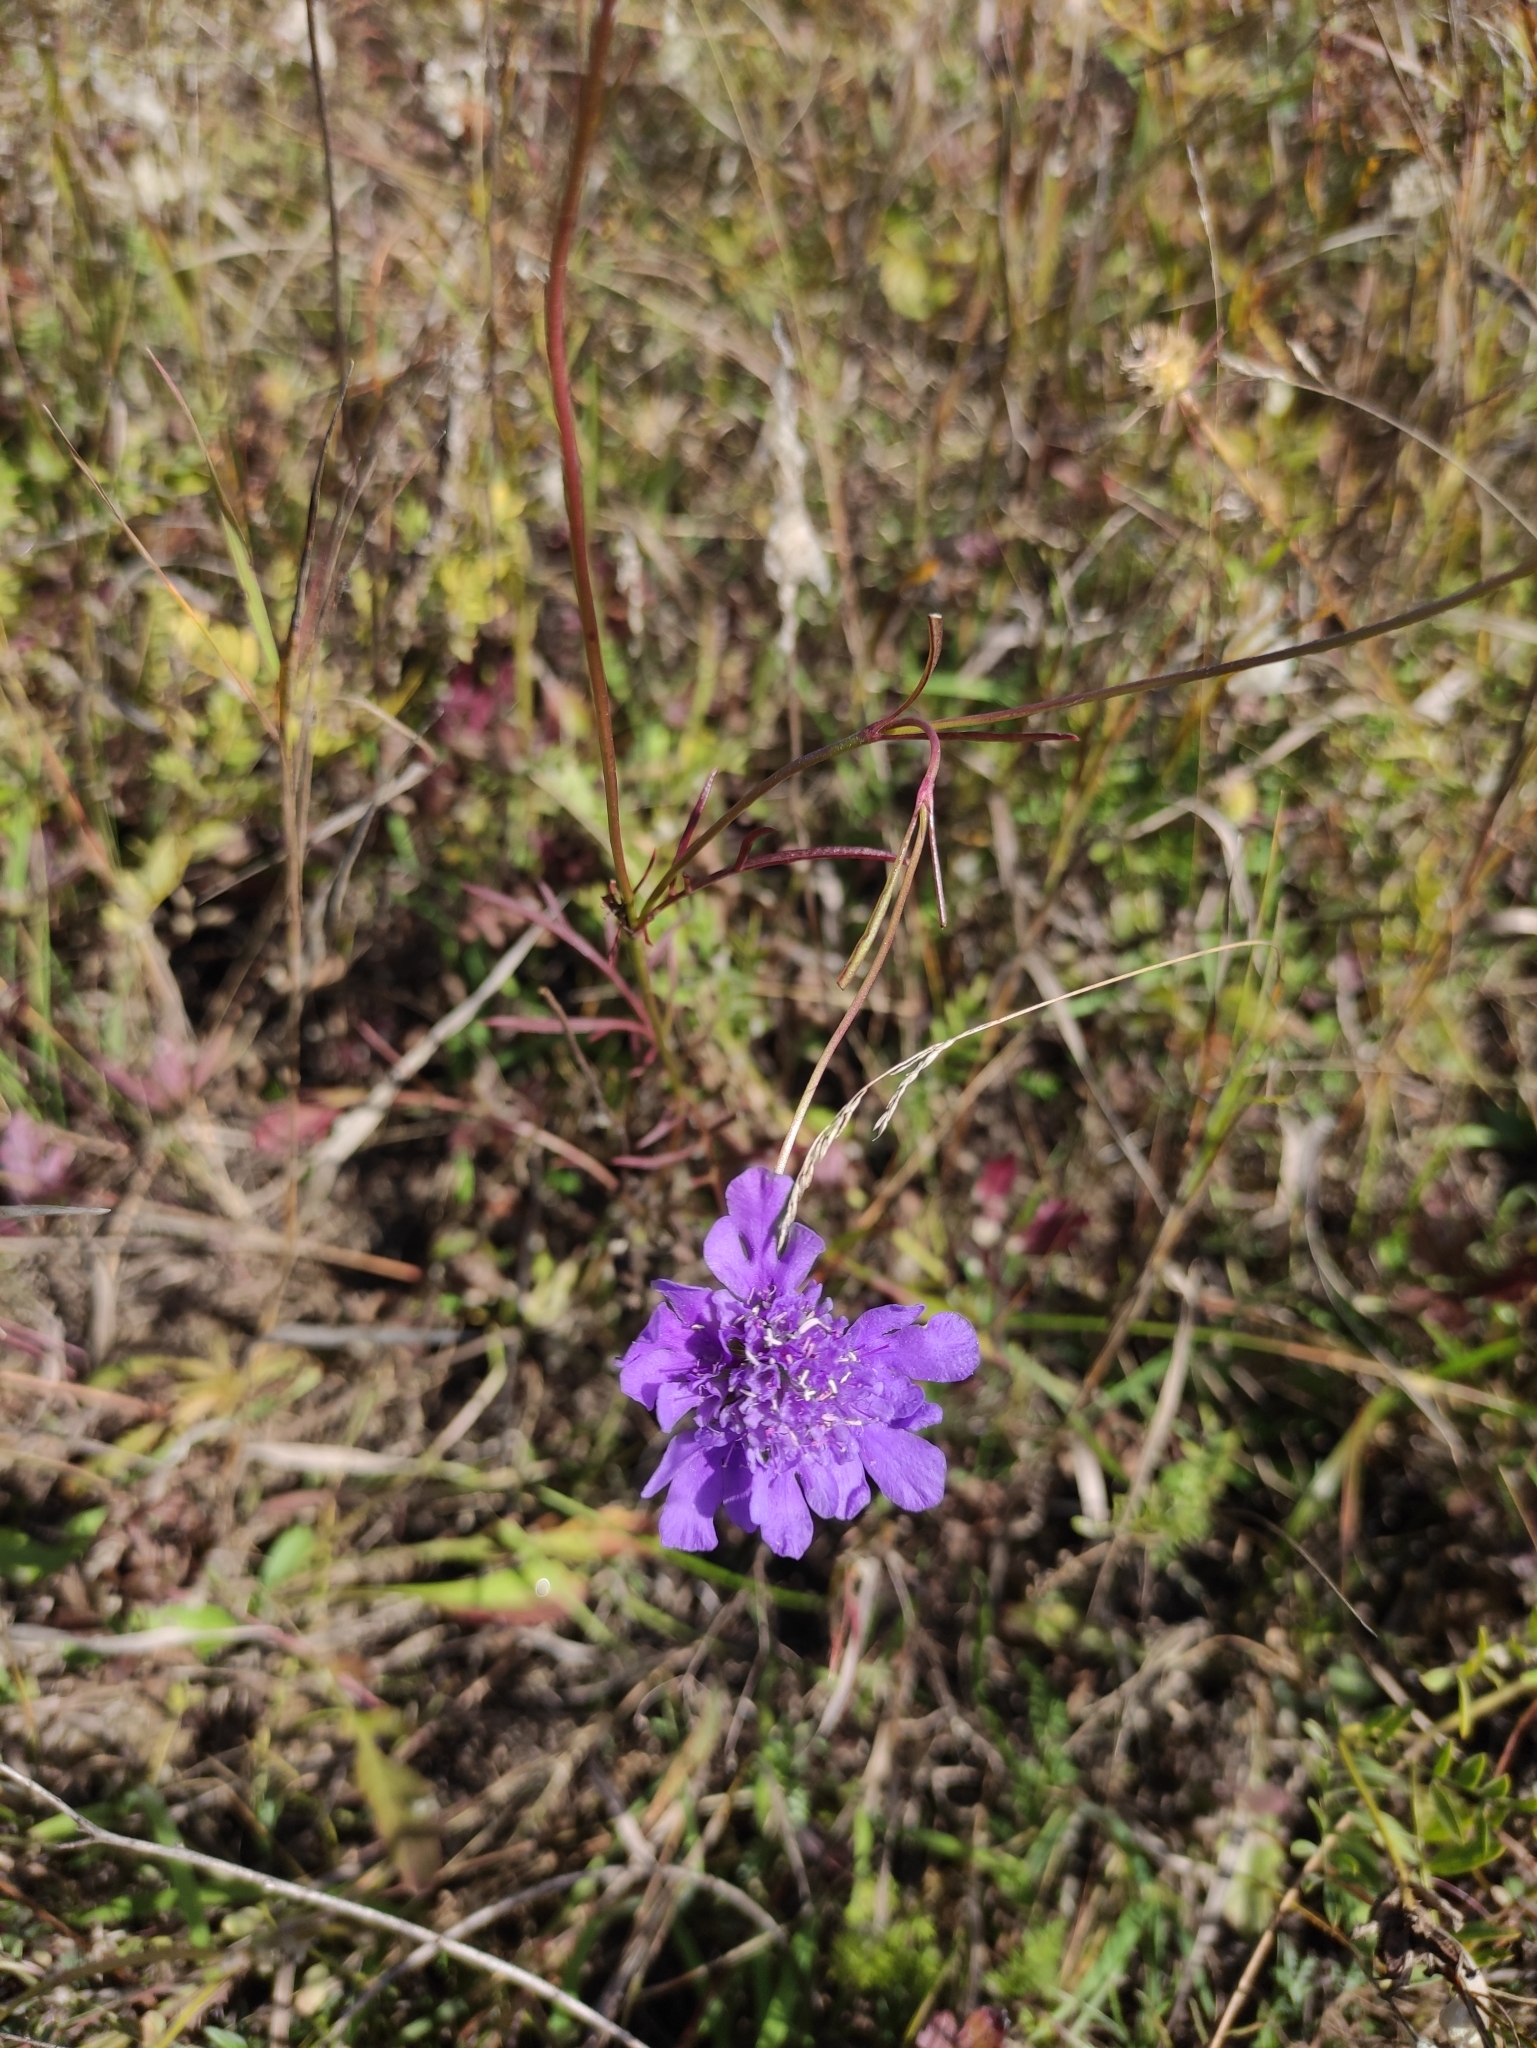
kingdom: Plantae
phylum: Tracheophyta
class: Magnoliopsida
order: Dipsacales
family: Caprifoliaceae
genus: Scabiosa
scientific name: Scabiosa comosa
